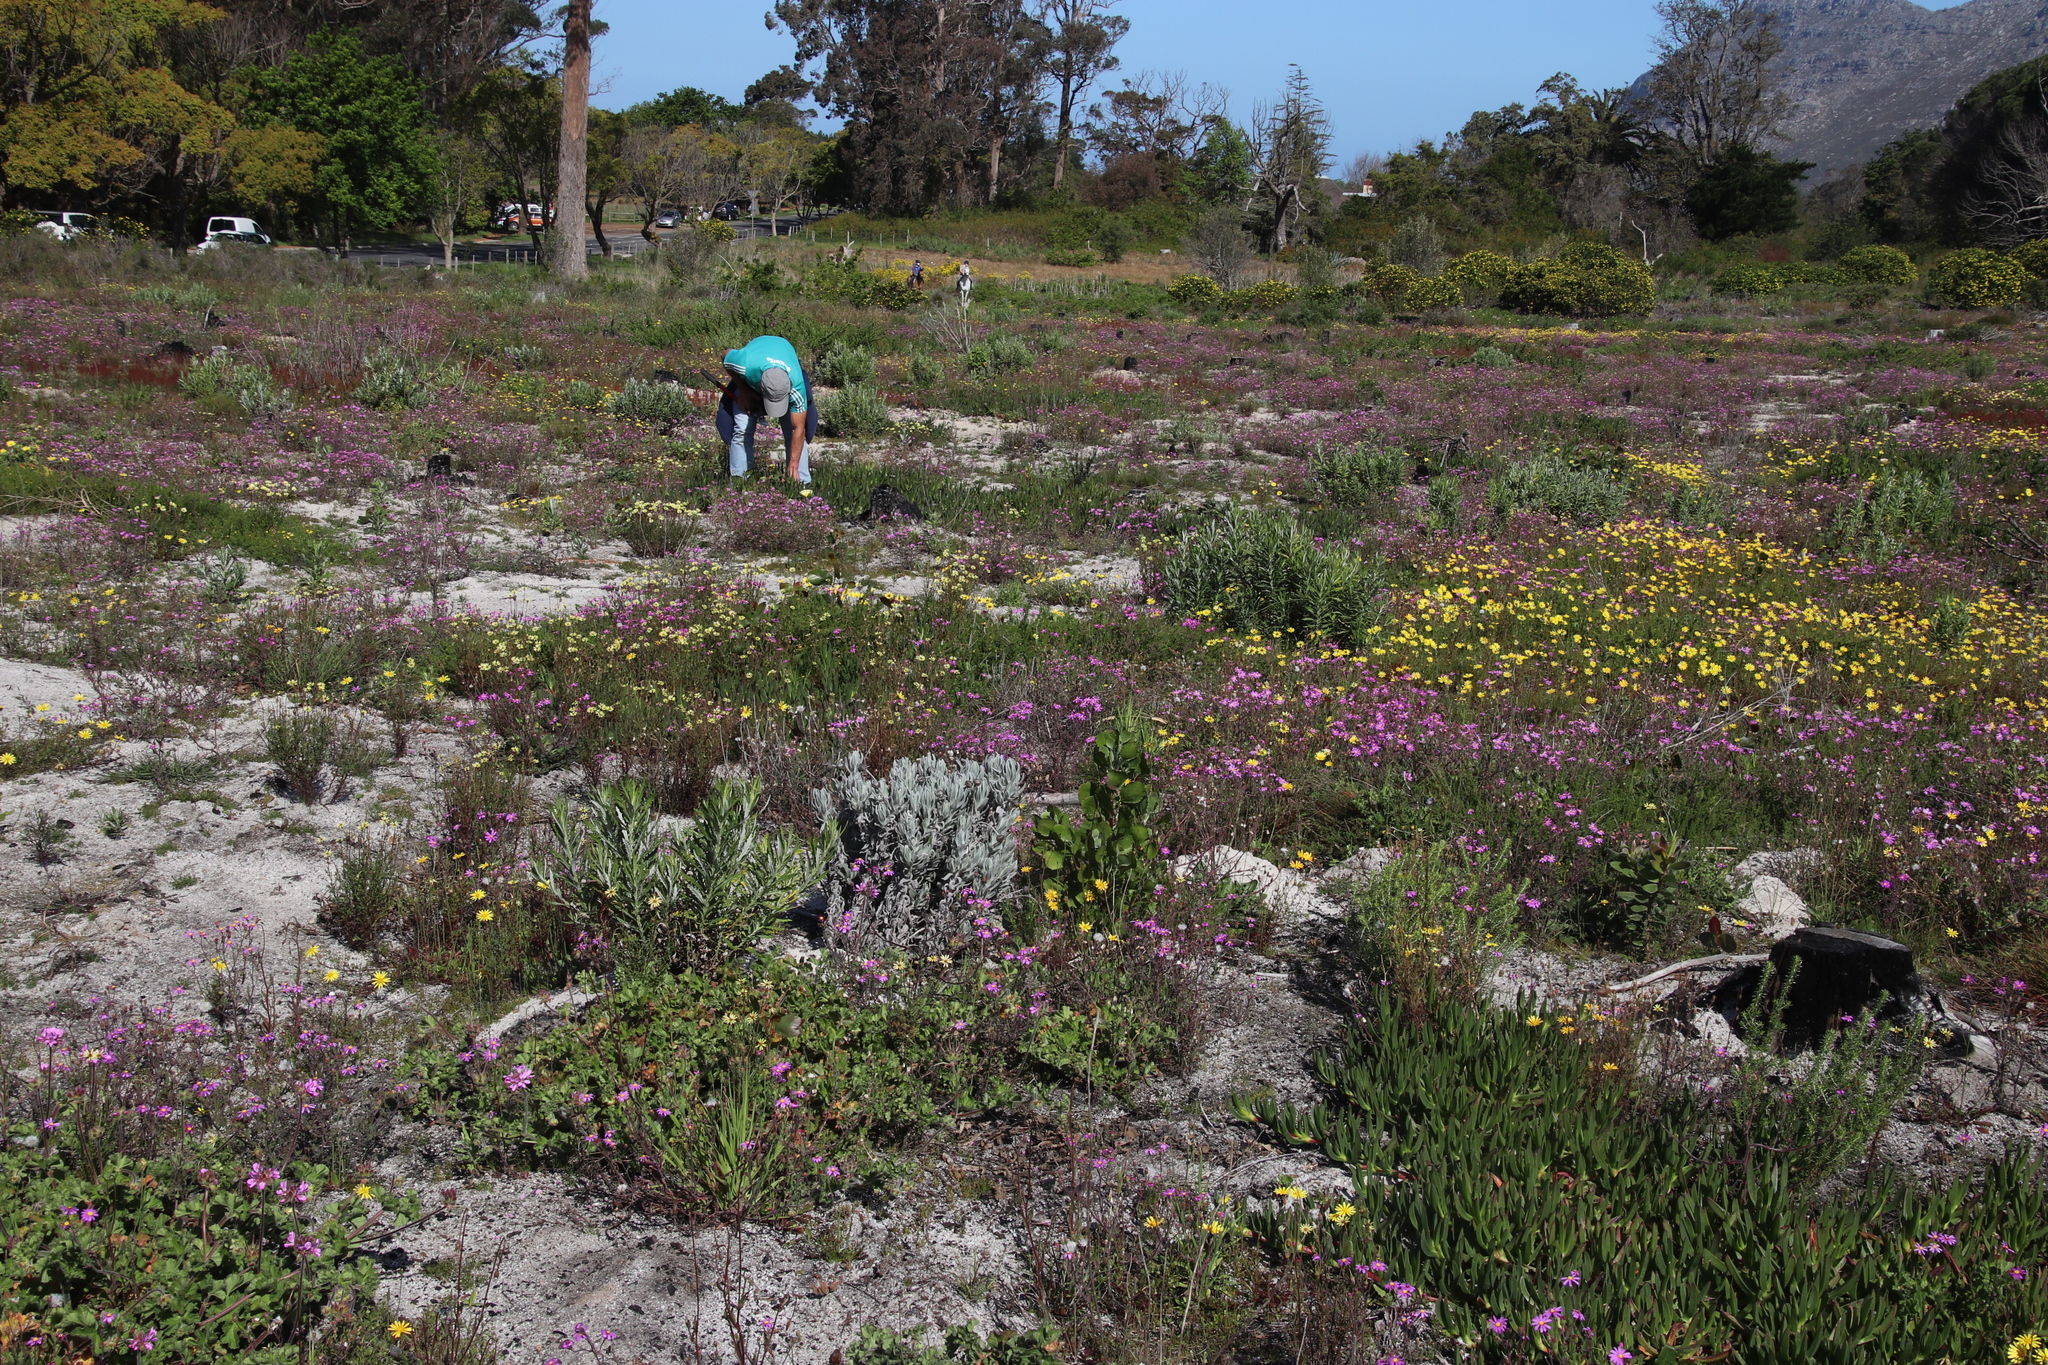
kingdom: Plantae
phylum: Tracheophyta
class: Magnoliopsida
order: Asterales
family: Asteraceae
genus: Syncarpha
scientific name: Syncarpha vestita
